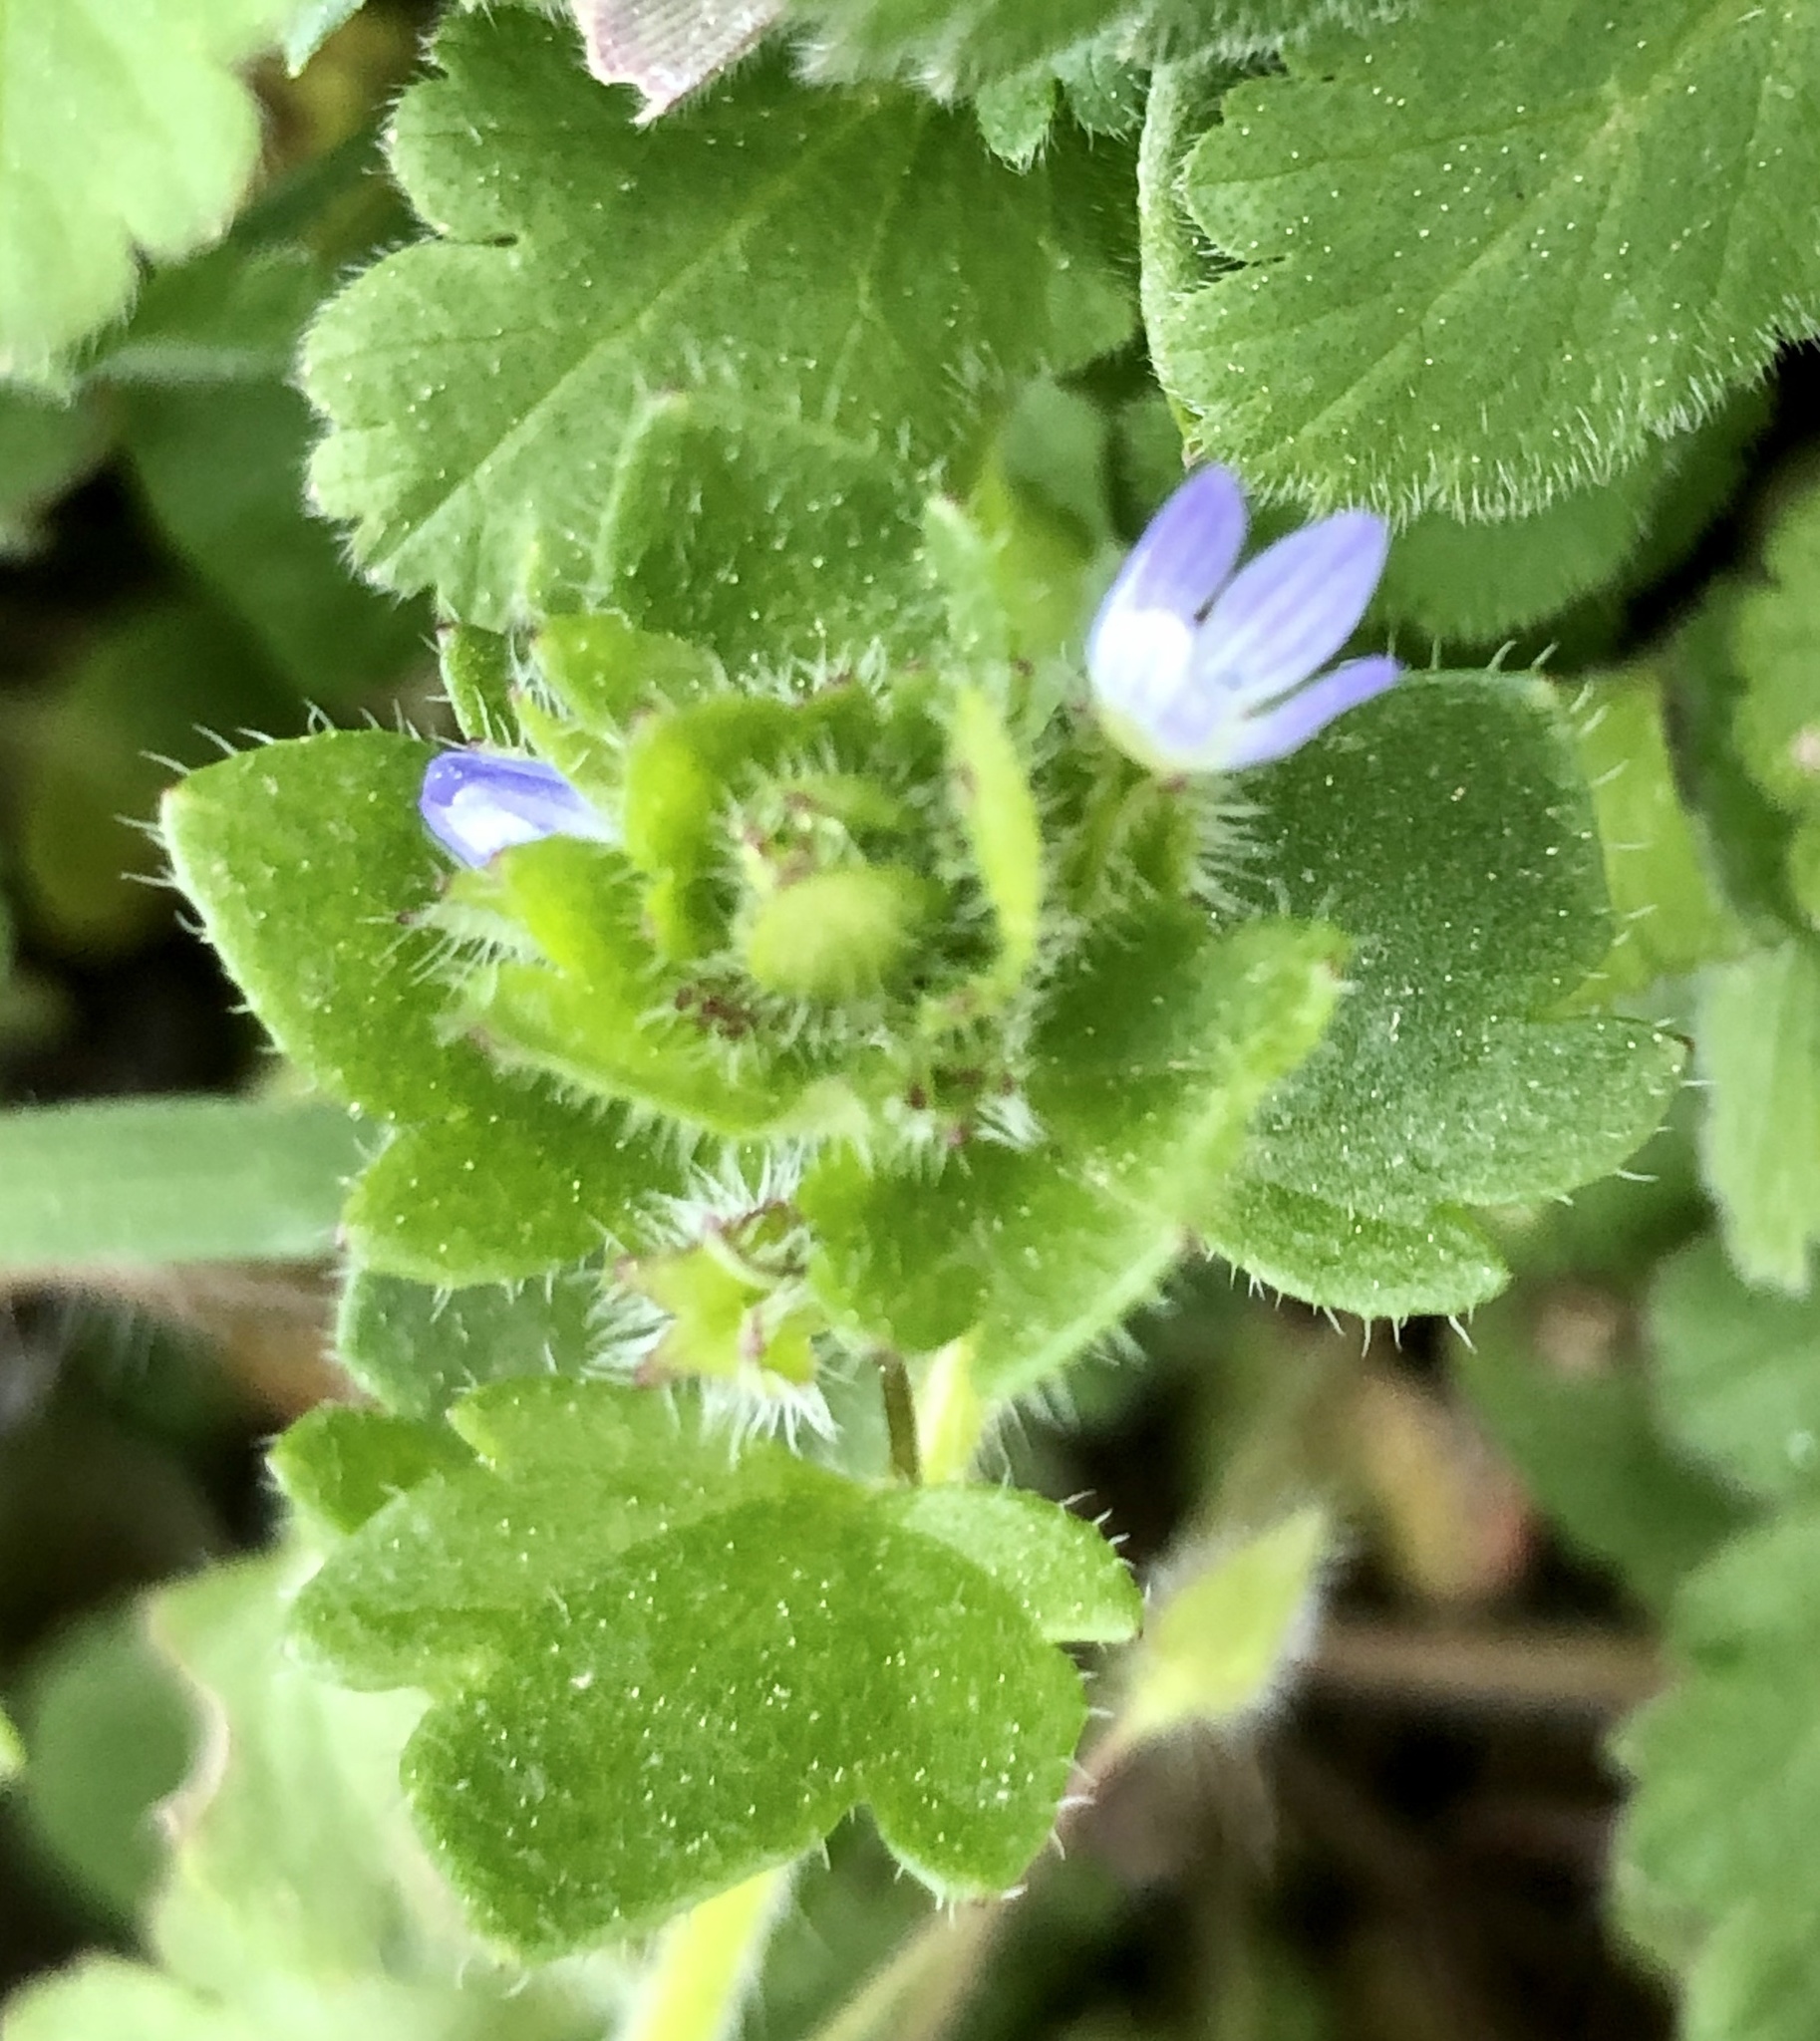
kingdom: Plantae
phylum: Tracheophyta
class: Magnoliopsida
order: Lamiales
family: Plantaginaceae
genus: Veronica
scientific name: Veronica hederifolia
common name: Ivy-leaved speedwell
